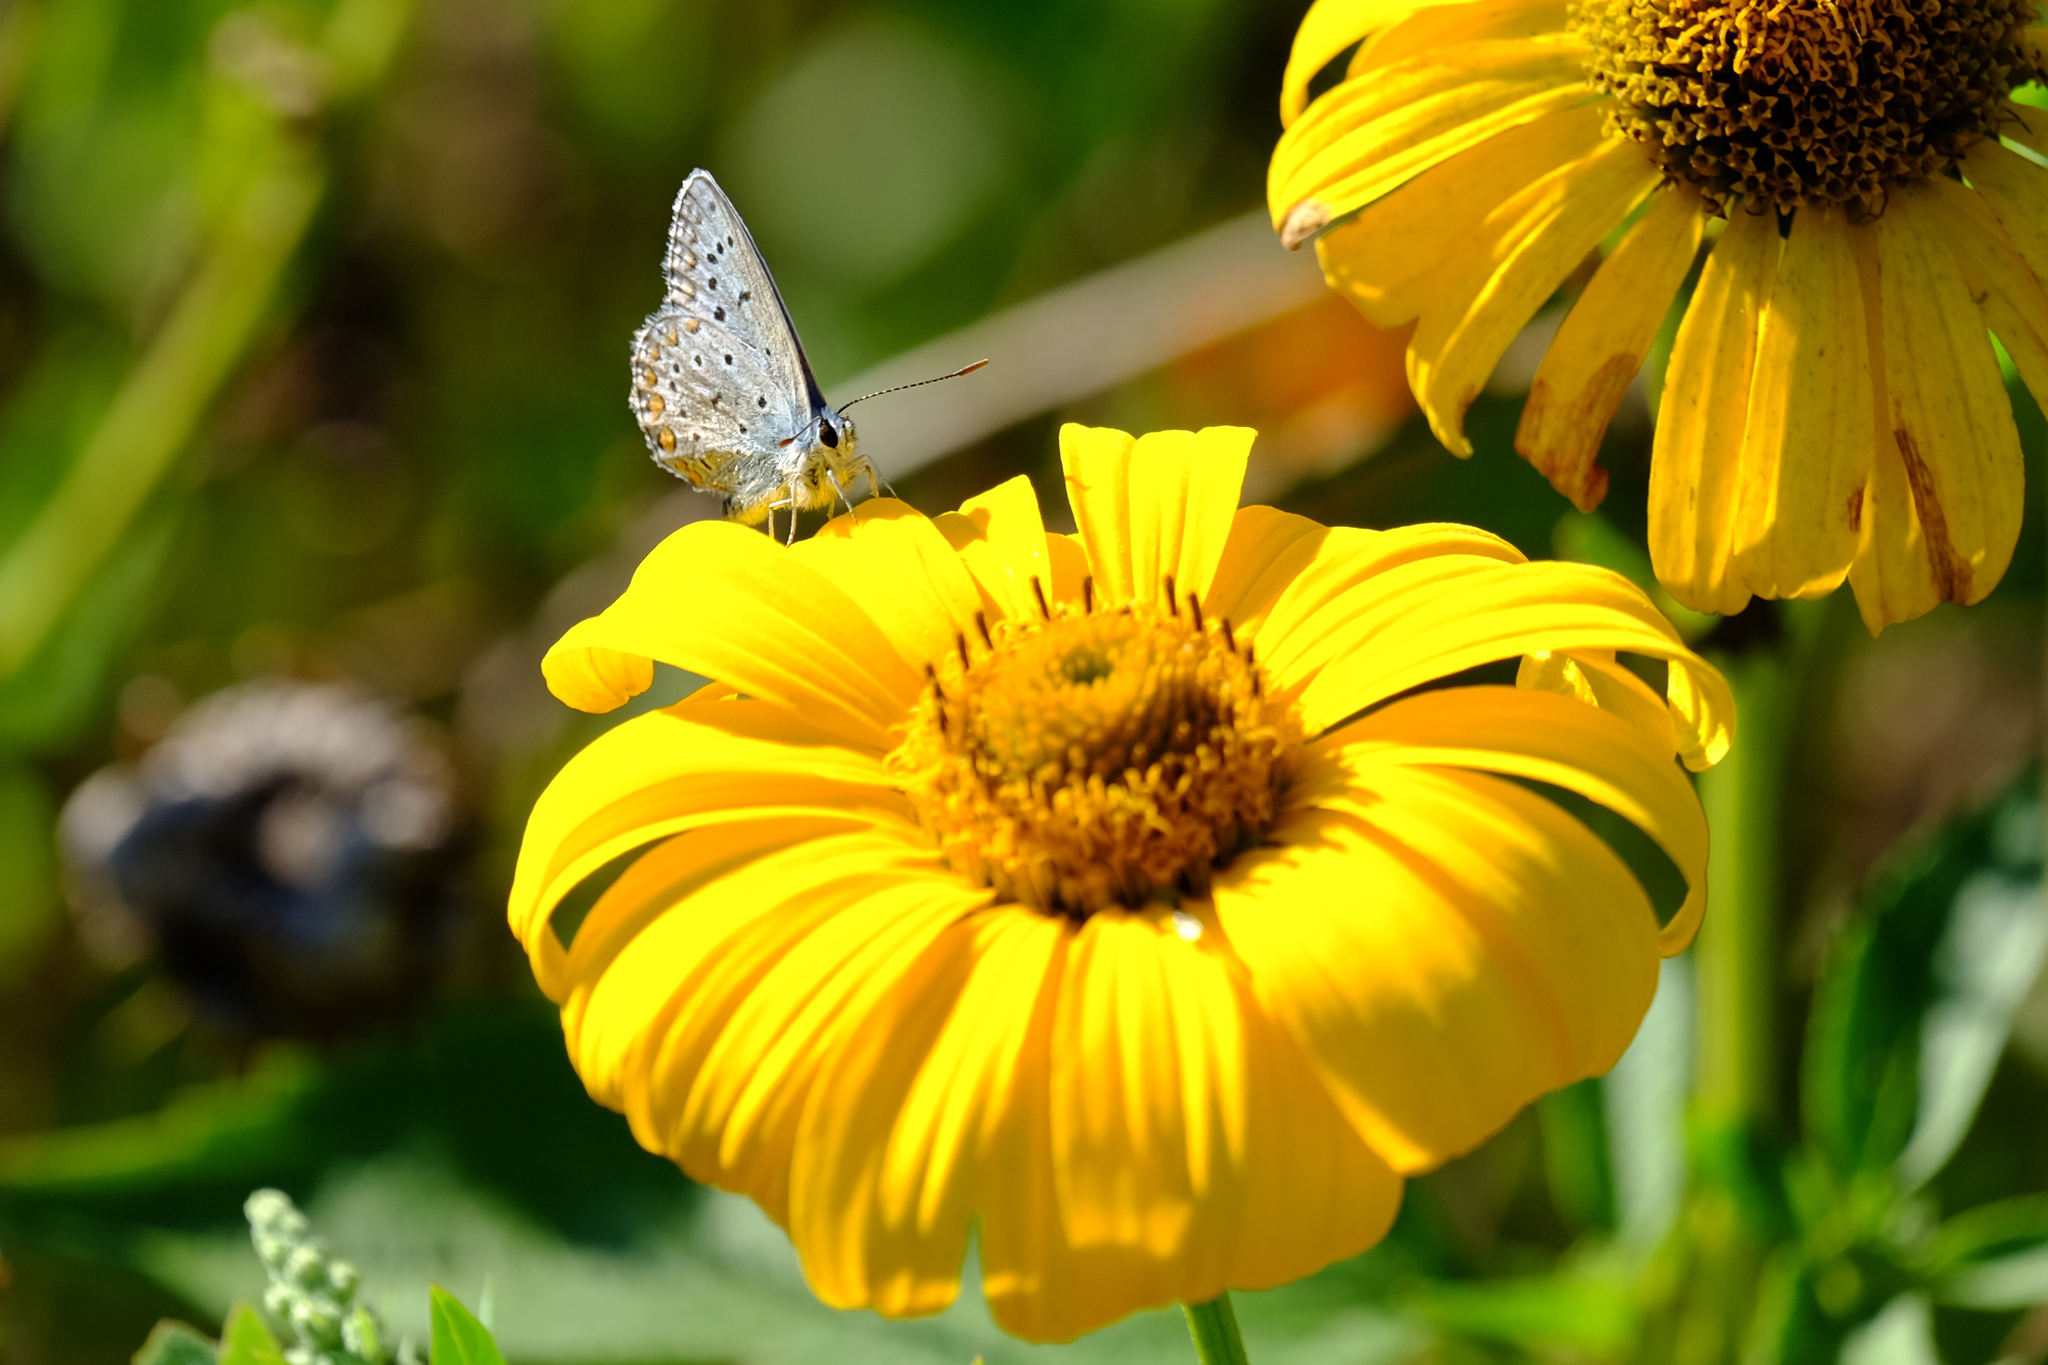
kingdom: Animalia
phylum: Arthropoda
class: Insecta
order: Lepidoptera
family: Lycaenidae
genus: Polyommatus
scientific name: Polyommatus icarus
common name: Common blue
